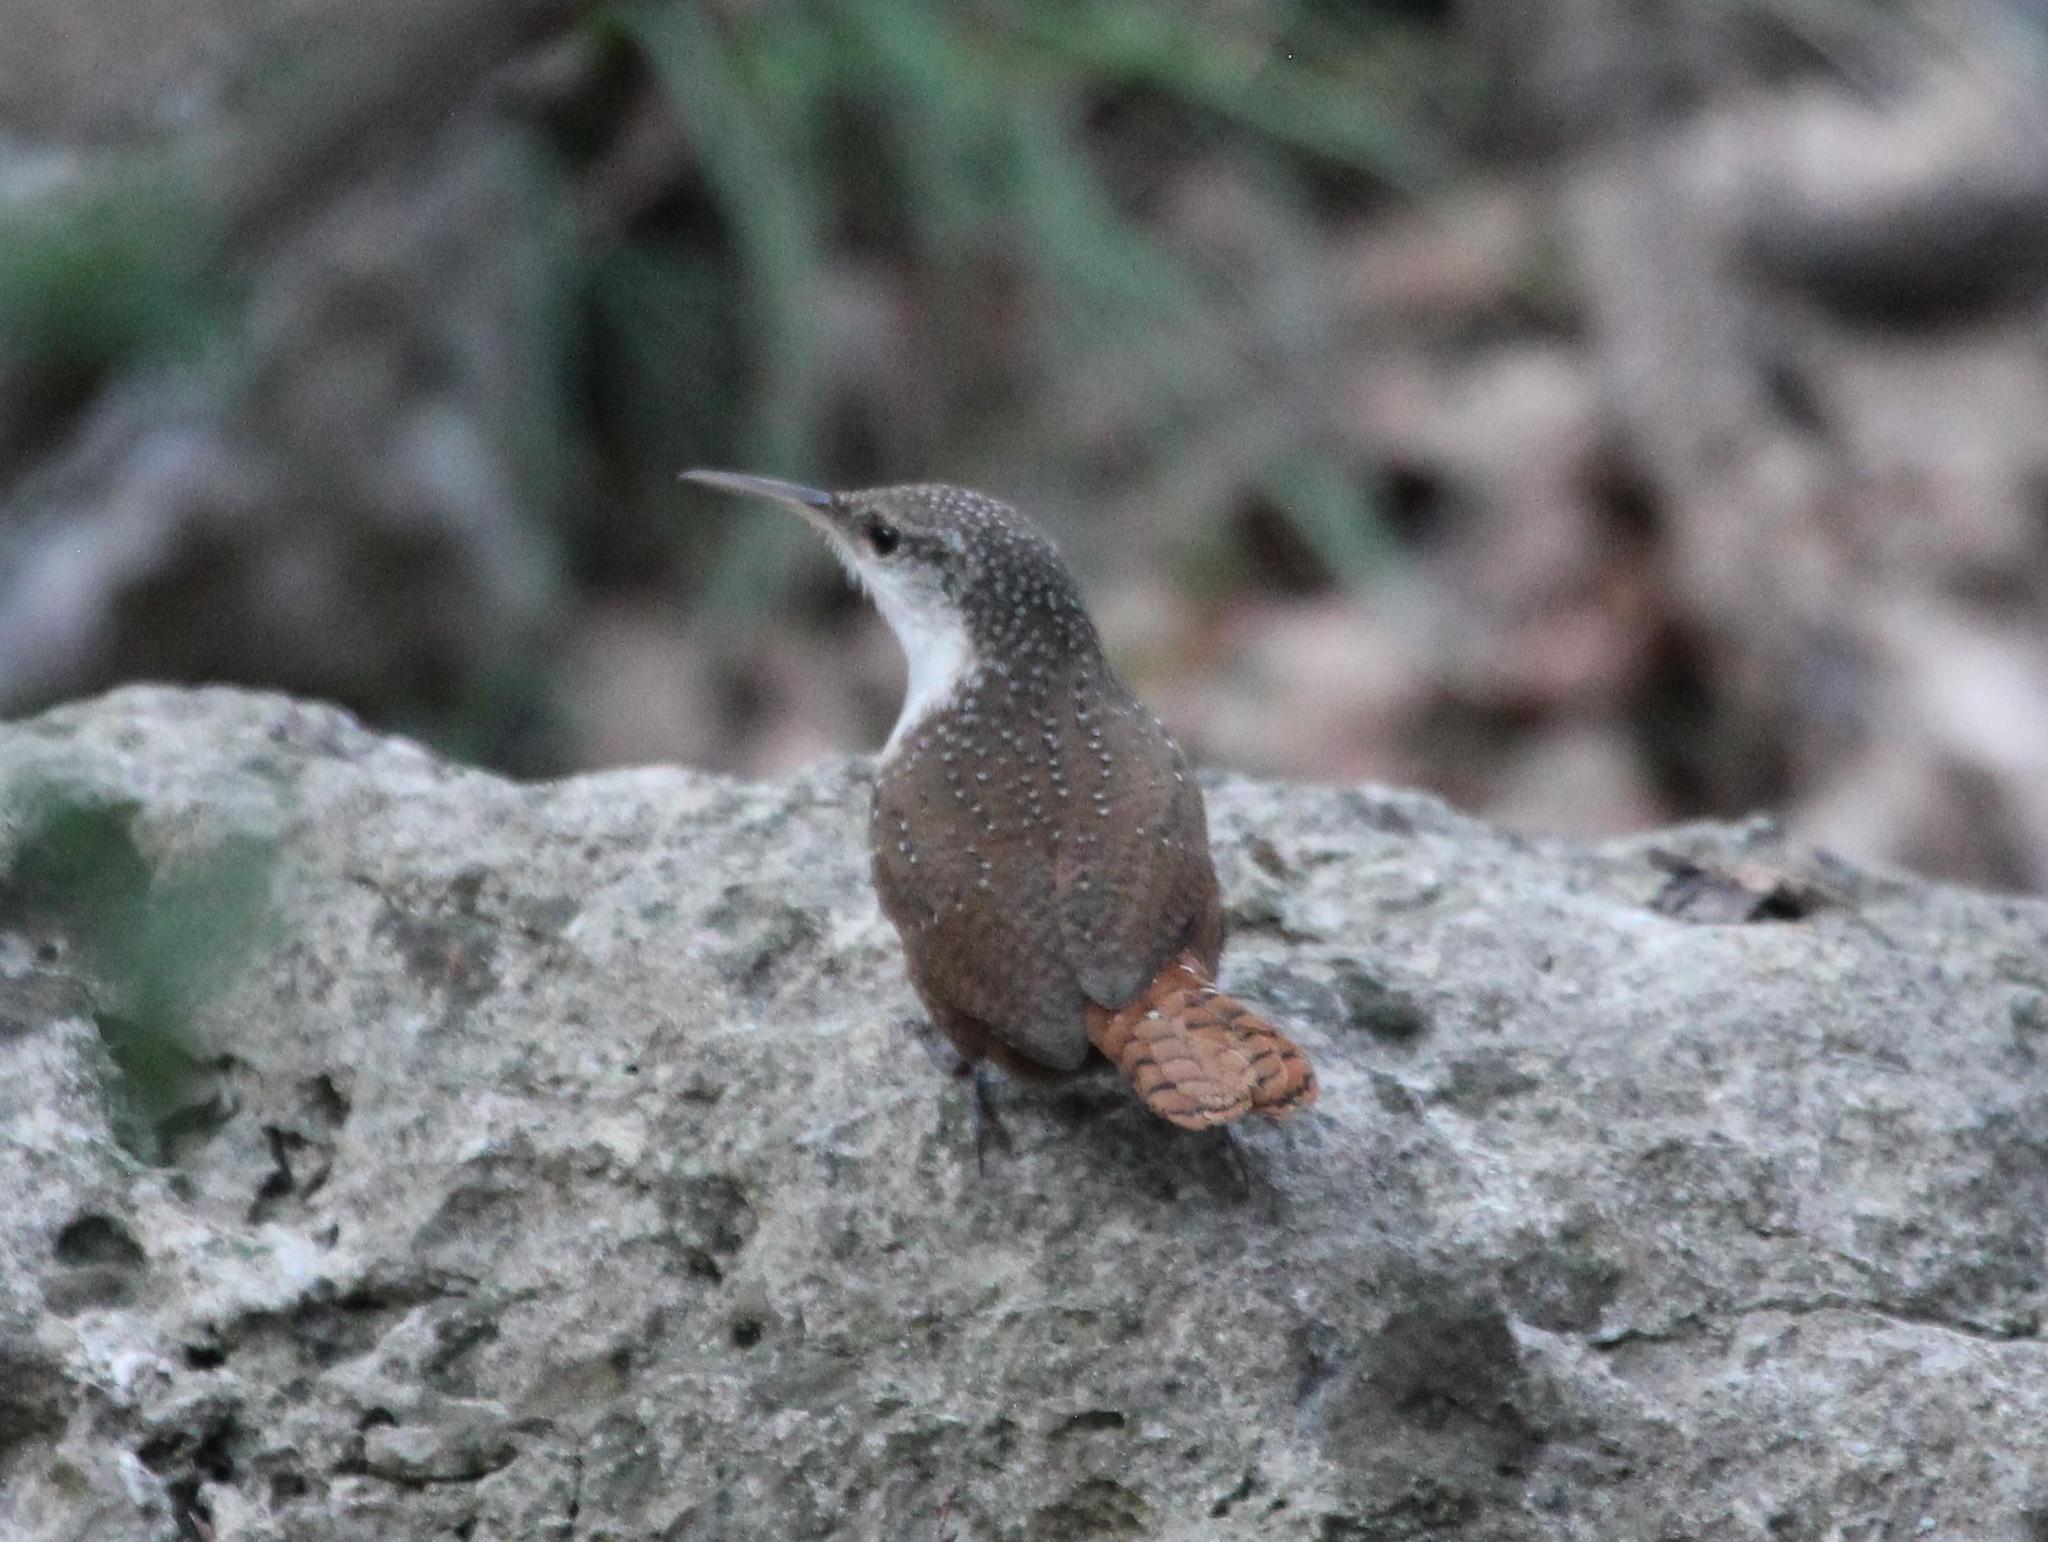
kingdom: Animalia
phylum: Chordata
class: Aves
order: Passeriformes
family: Troglodytidae
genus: Catherpes
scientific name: Catherpes mexicanus
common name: Canyon wren
